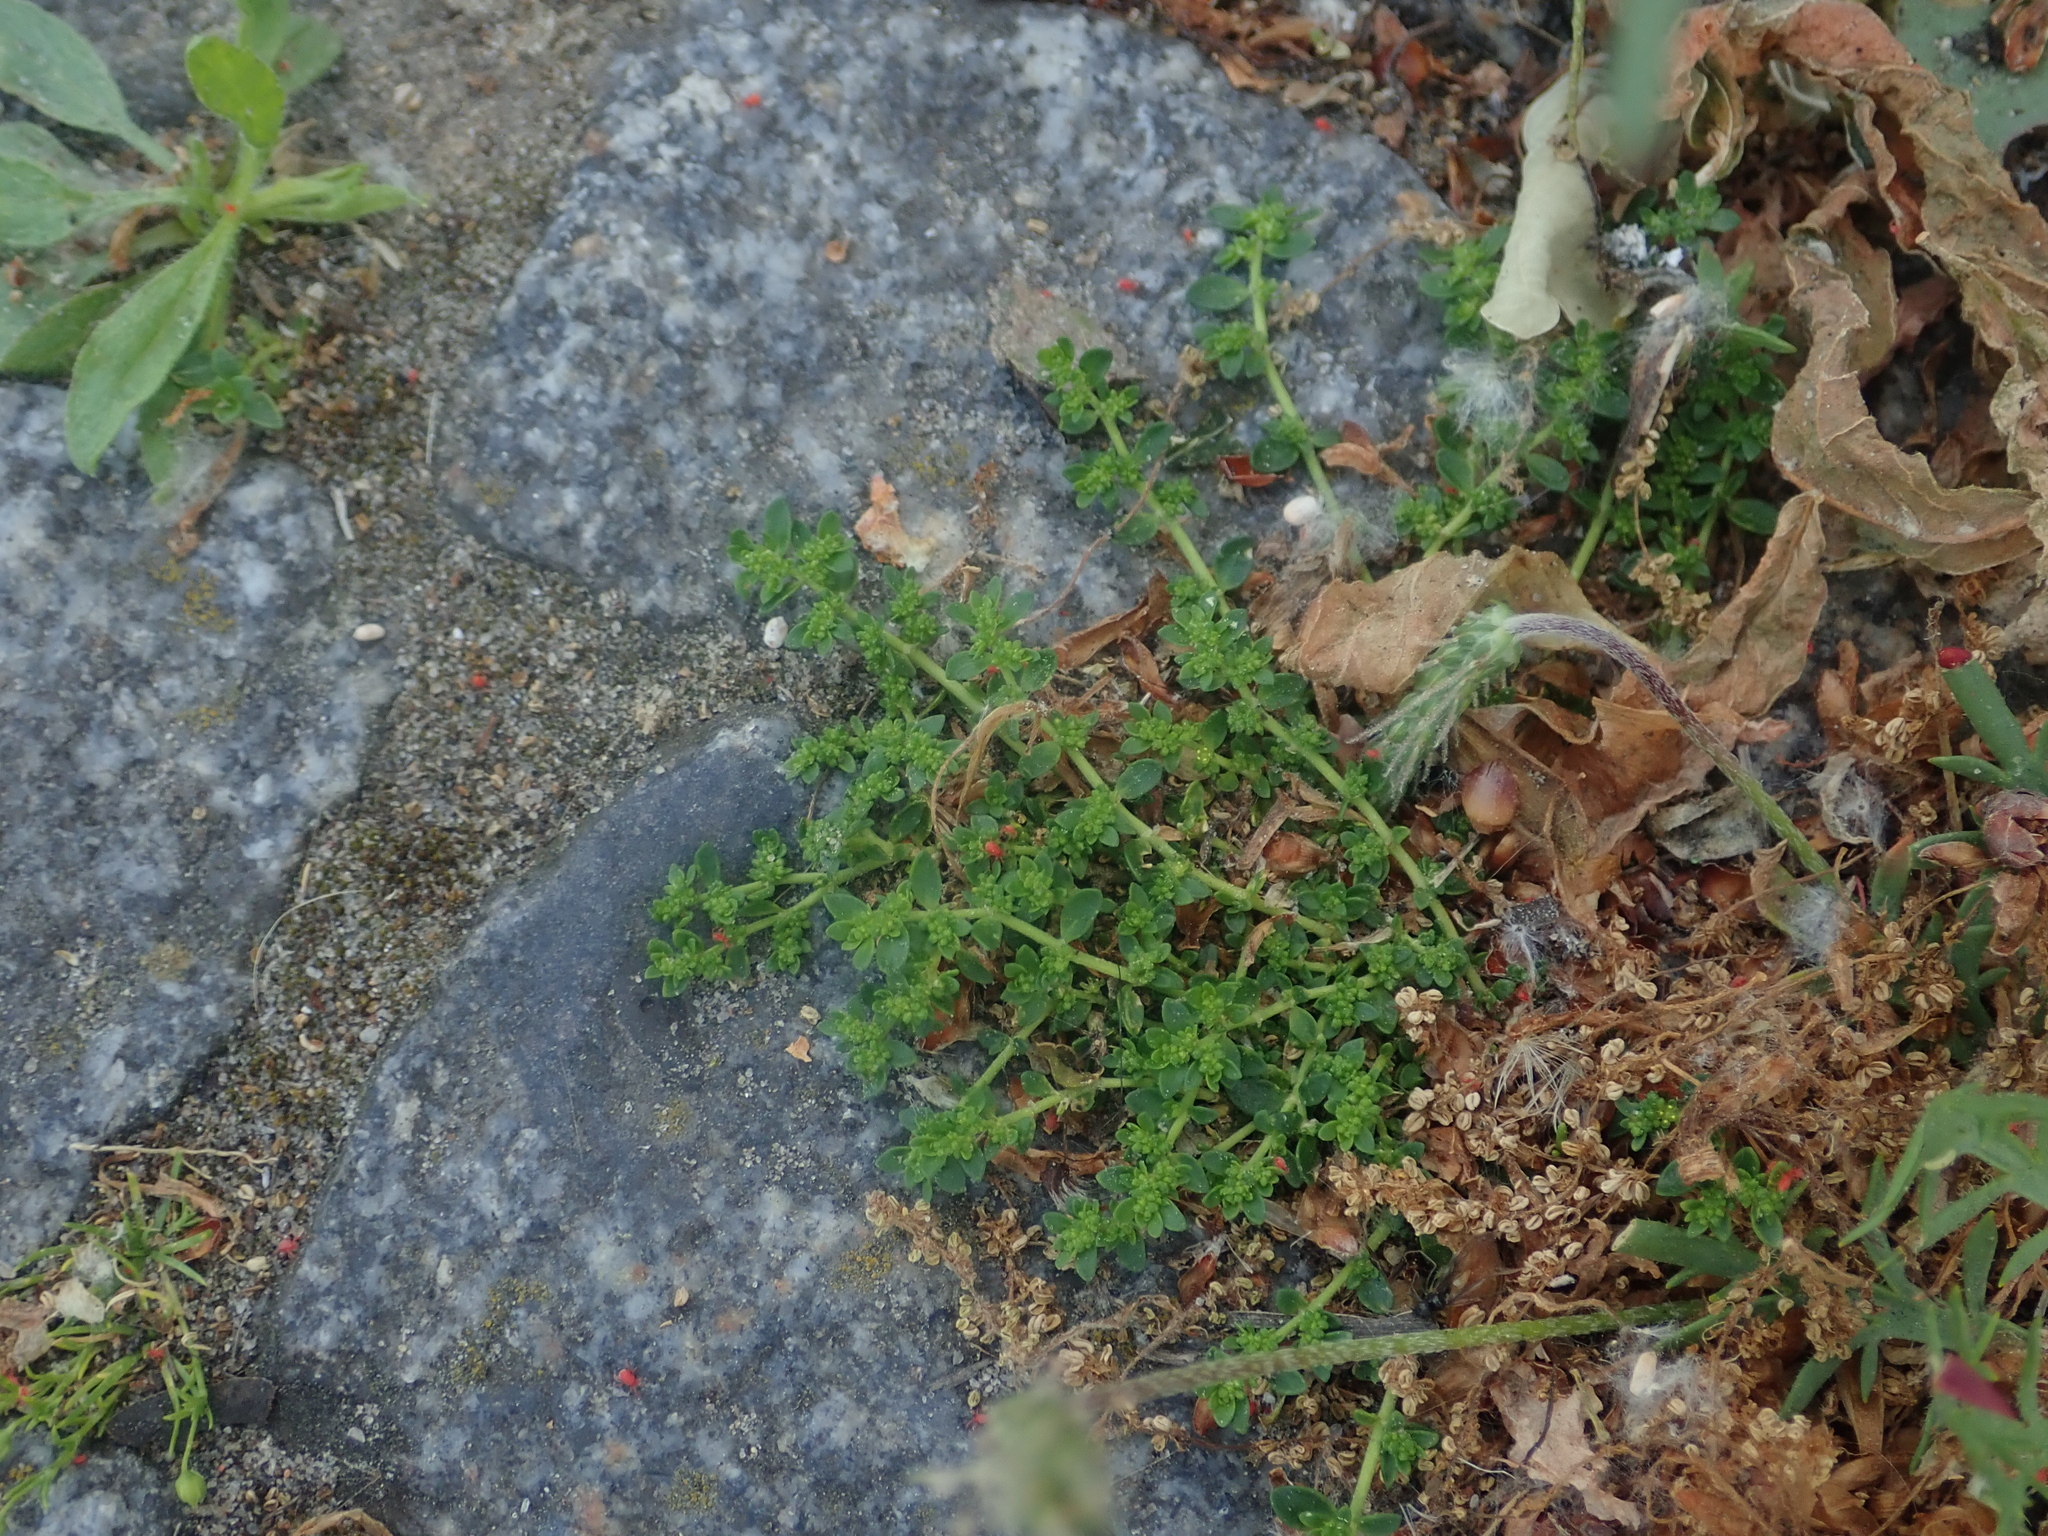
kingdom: Plantae
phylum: Tracheophyta
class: Magnoliopsida
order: Caryophyllales
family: Caryophyllaceae
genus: Herniaria
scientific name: Herniaria glabra
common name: Smooth rupturewort
